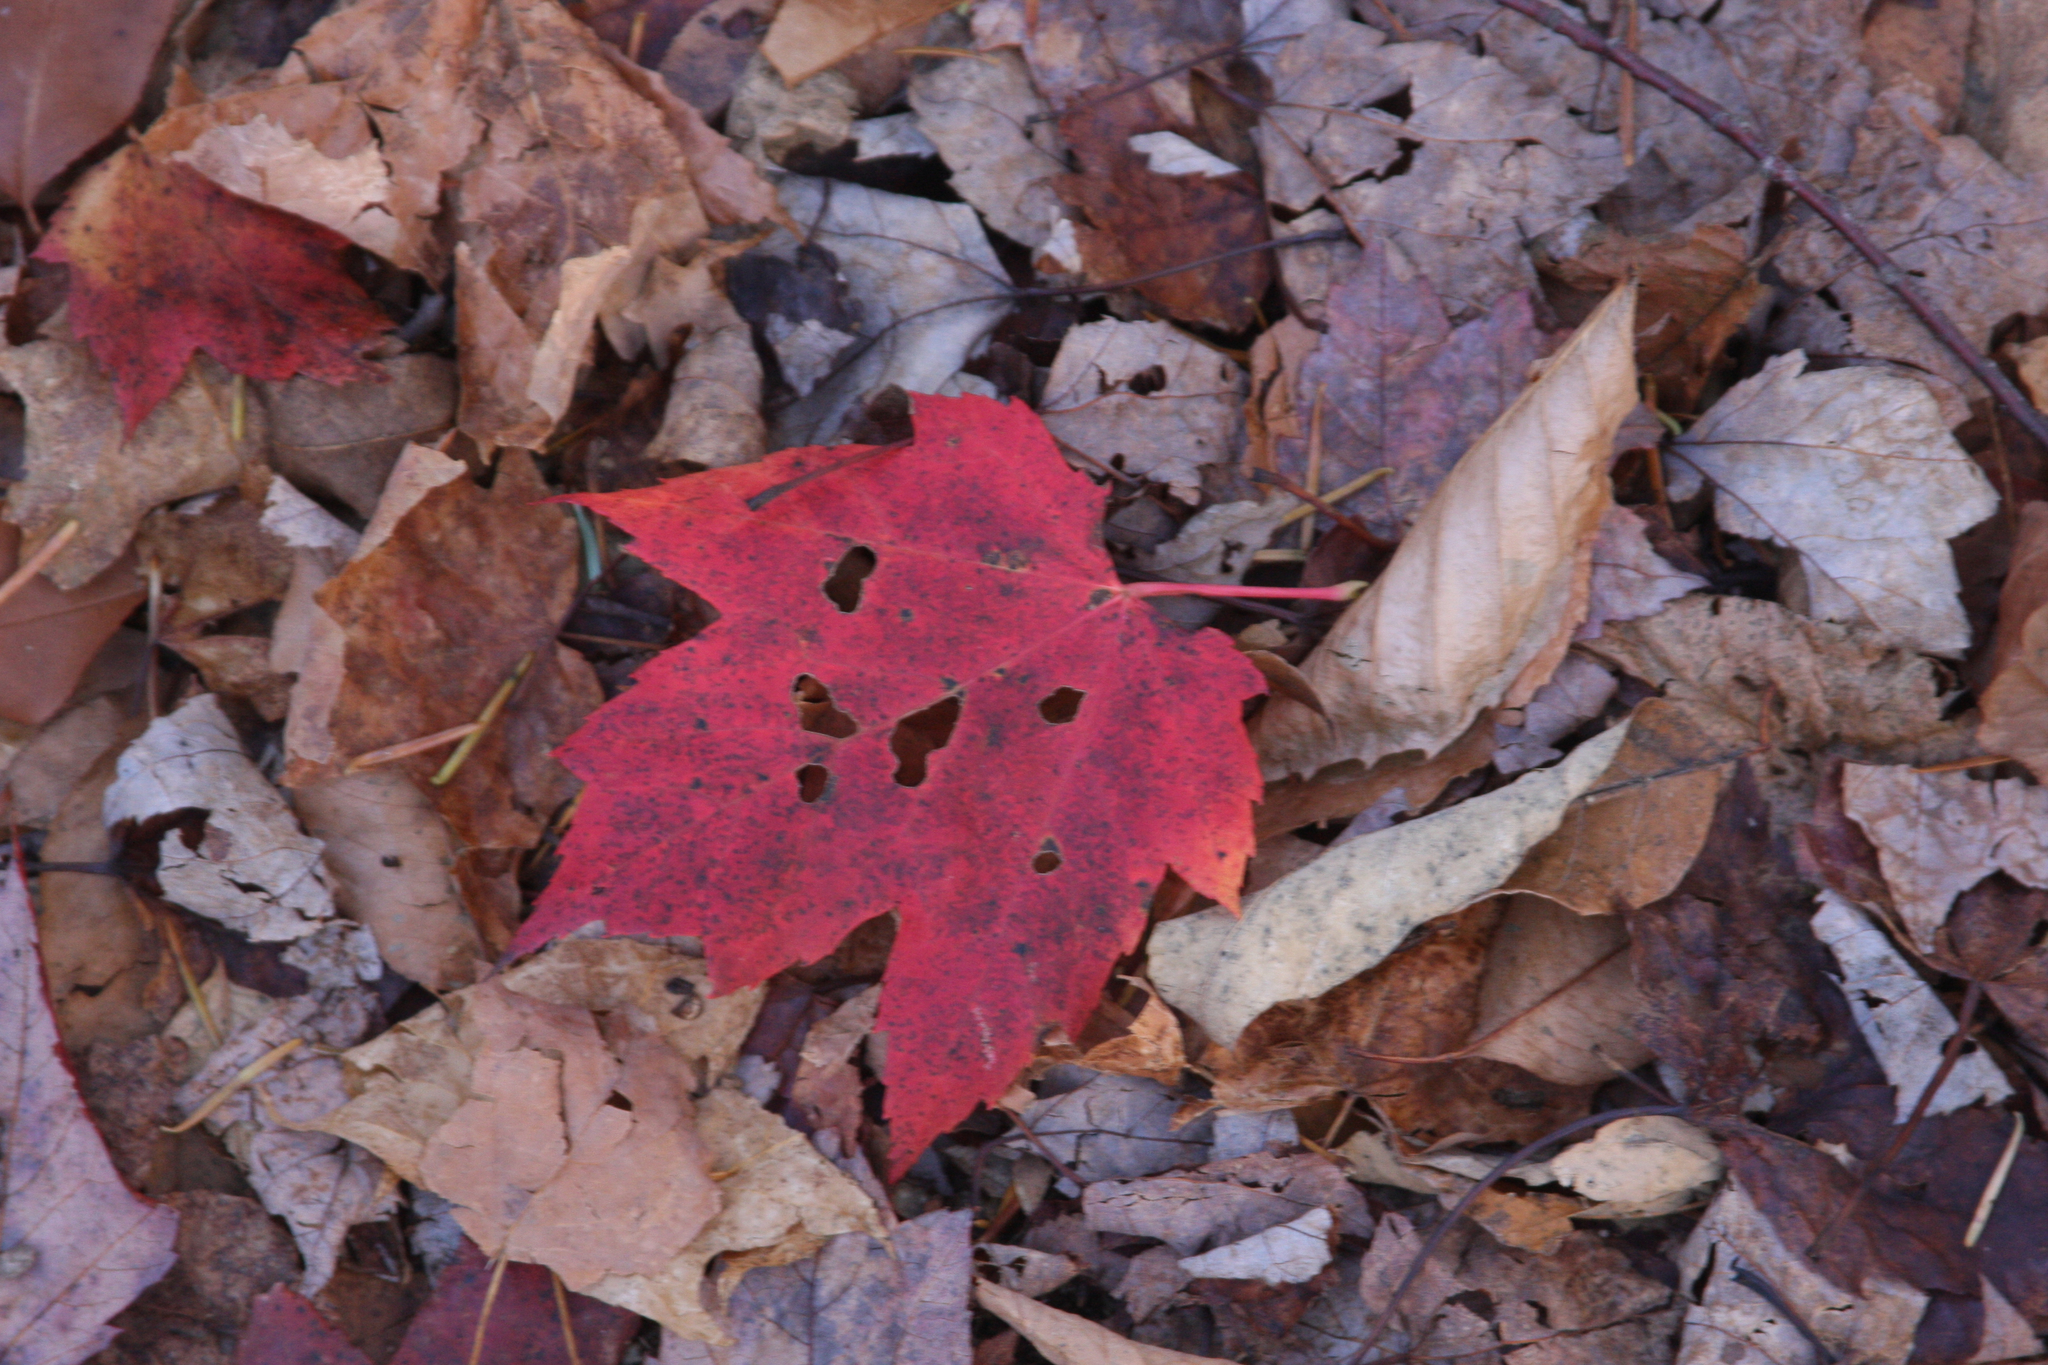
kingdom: Plantae
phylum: Tracheophyta
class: Magnoliopsida
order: Sapindales
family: Sapindaceae
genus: Acer
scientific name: Acer rubrum
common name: Red maple
